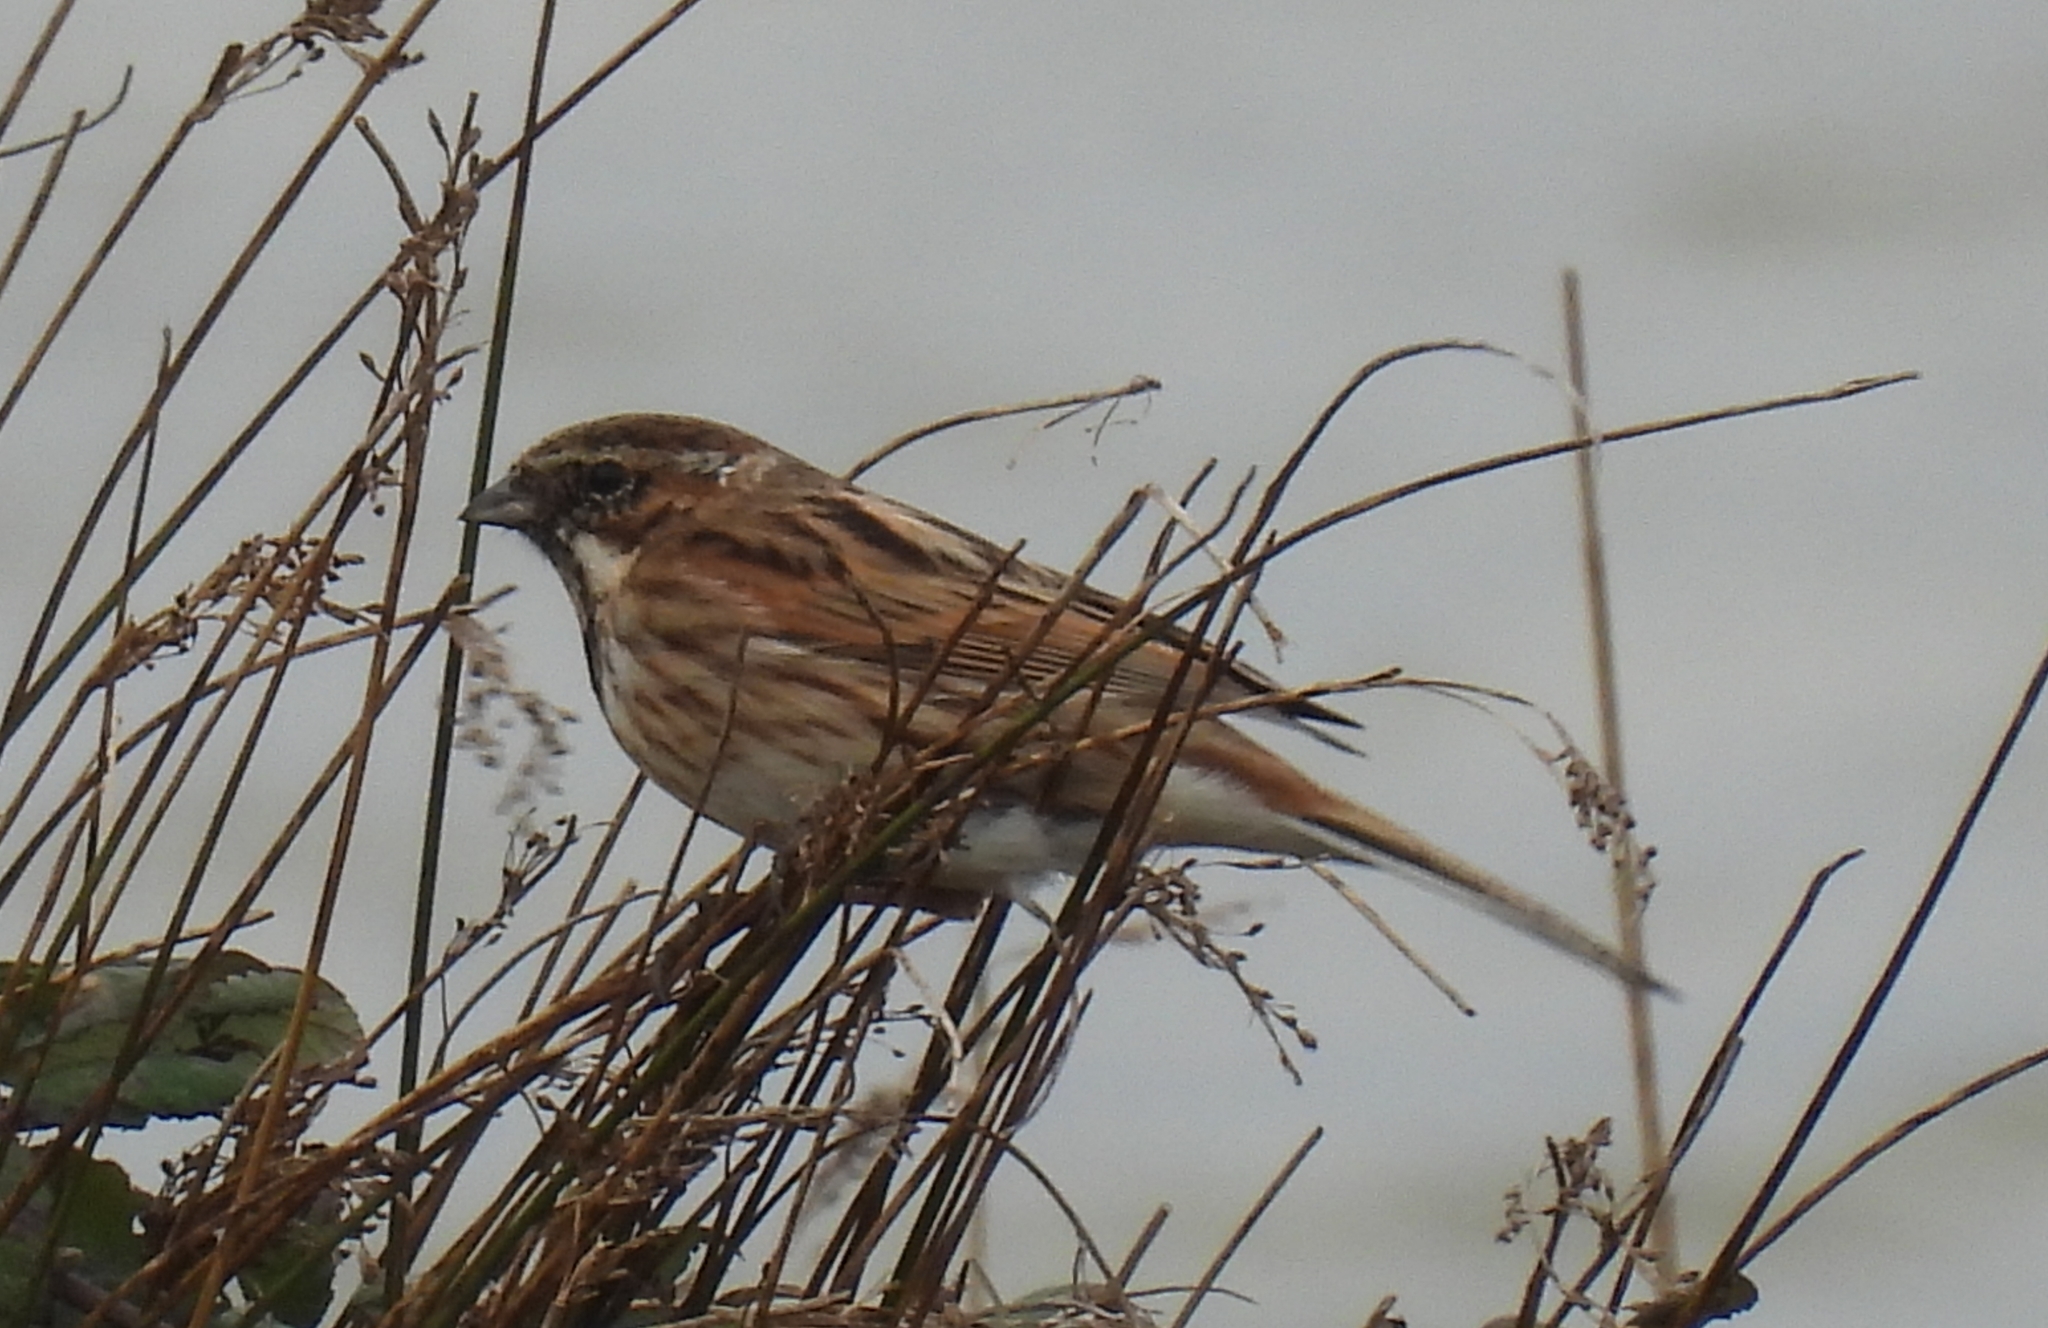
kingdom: Animalia
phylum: Chordata
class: Aves
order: Passeriformes
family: Emberizidae
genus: Emberiza
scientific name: Emberiza schoeniclus
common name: Reed bunting
